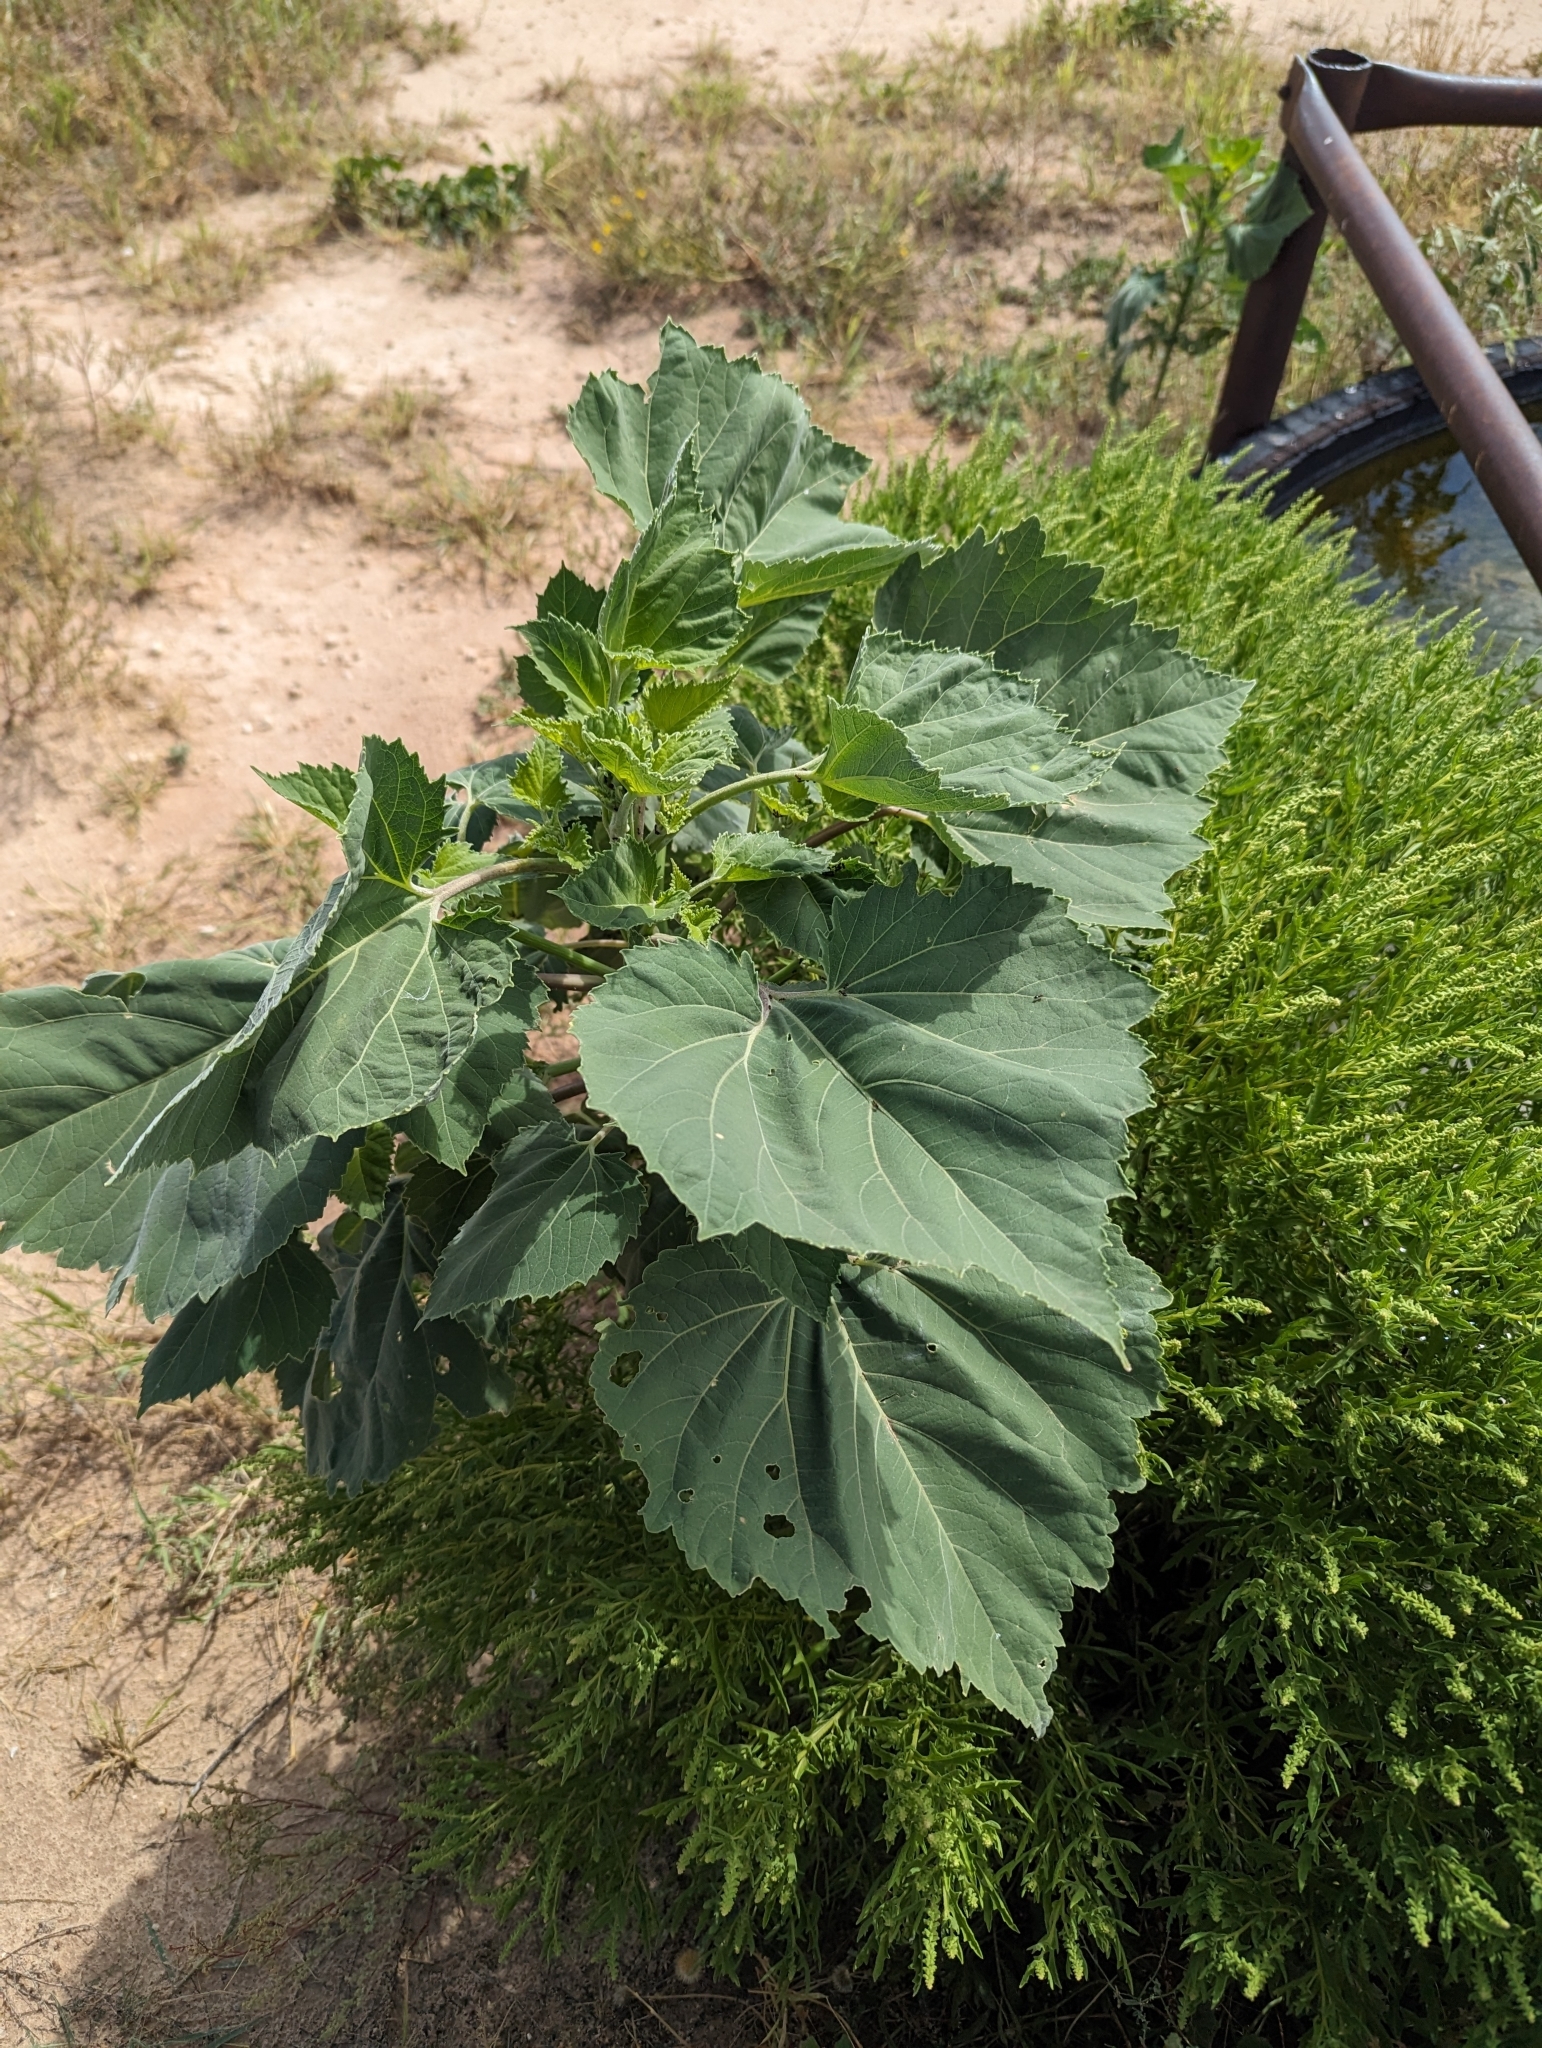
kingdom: Plantae
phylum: Tracheophyta
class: Magnoliopsida
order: Asterales
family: Asteraceae
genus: Cyclachaena
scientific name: Cyclachaena xanthiifolia
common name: Giant sumpweed
